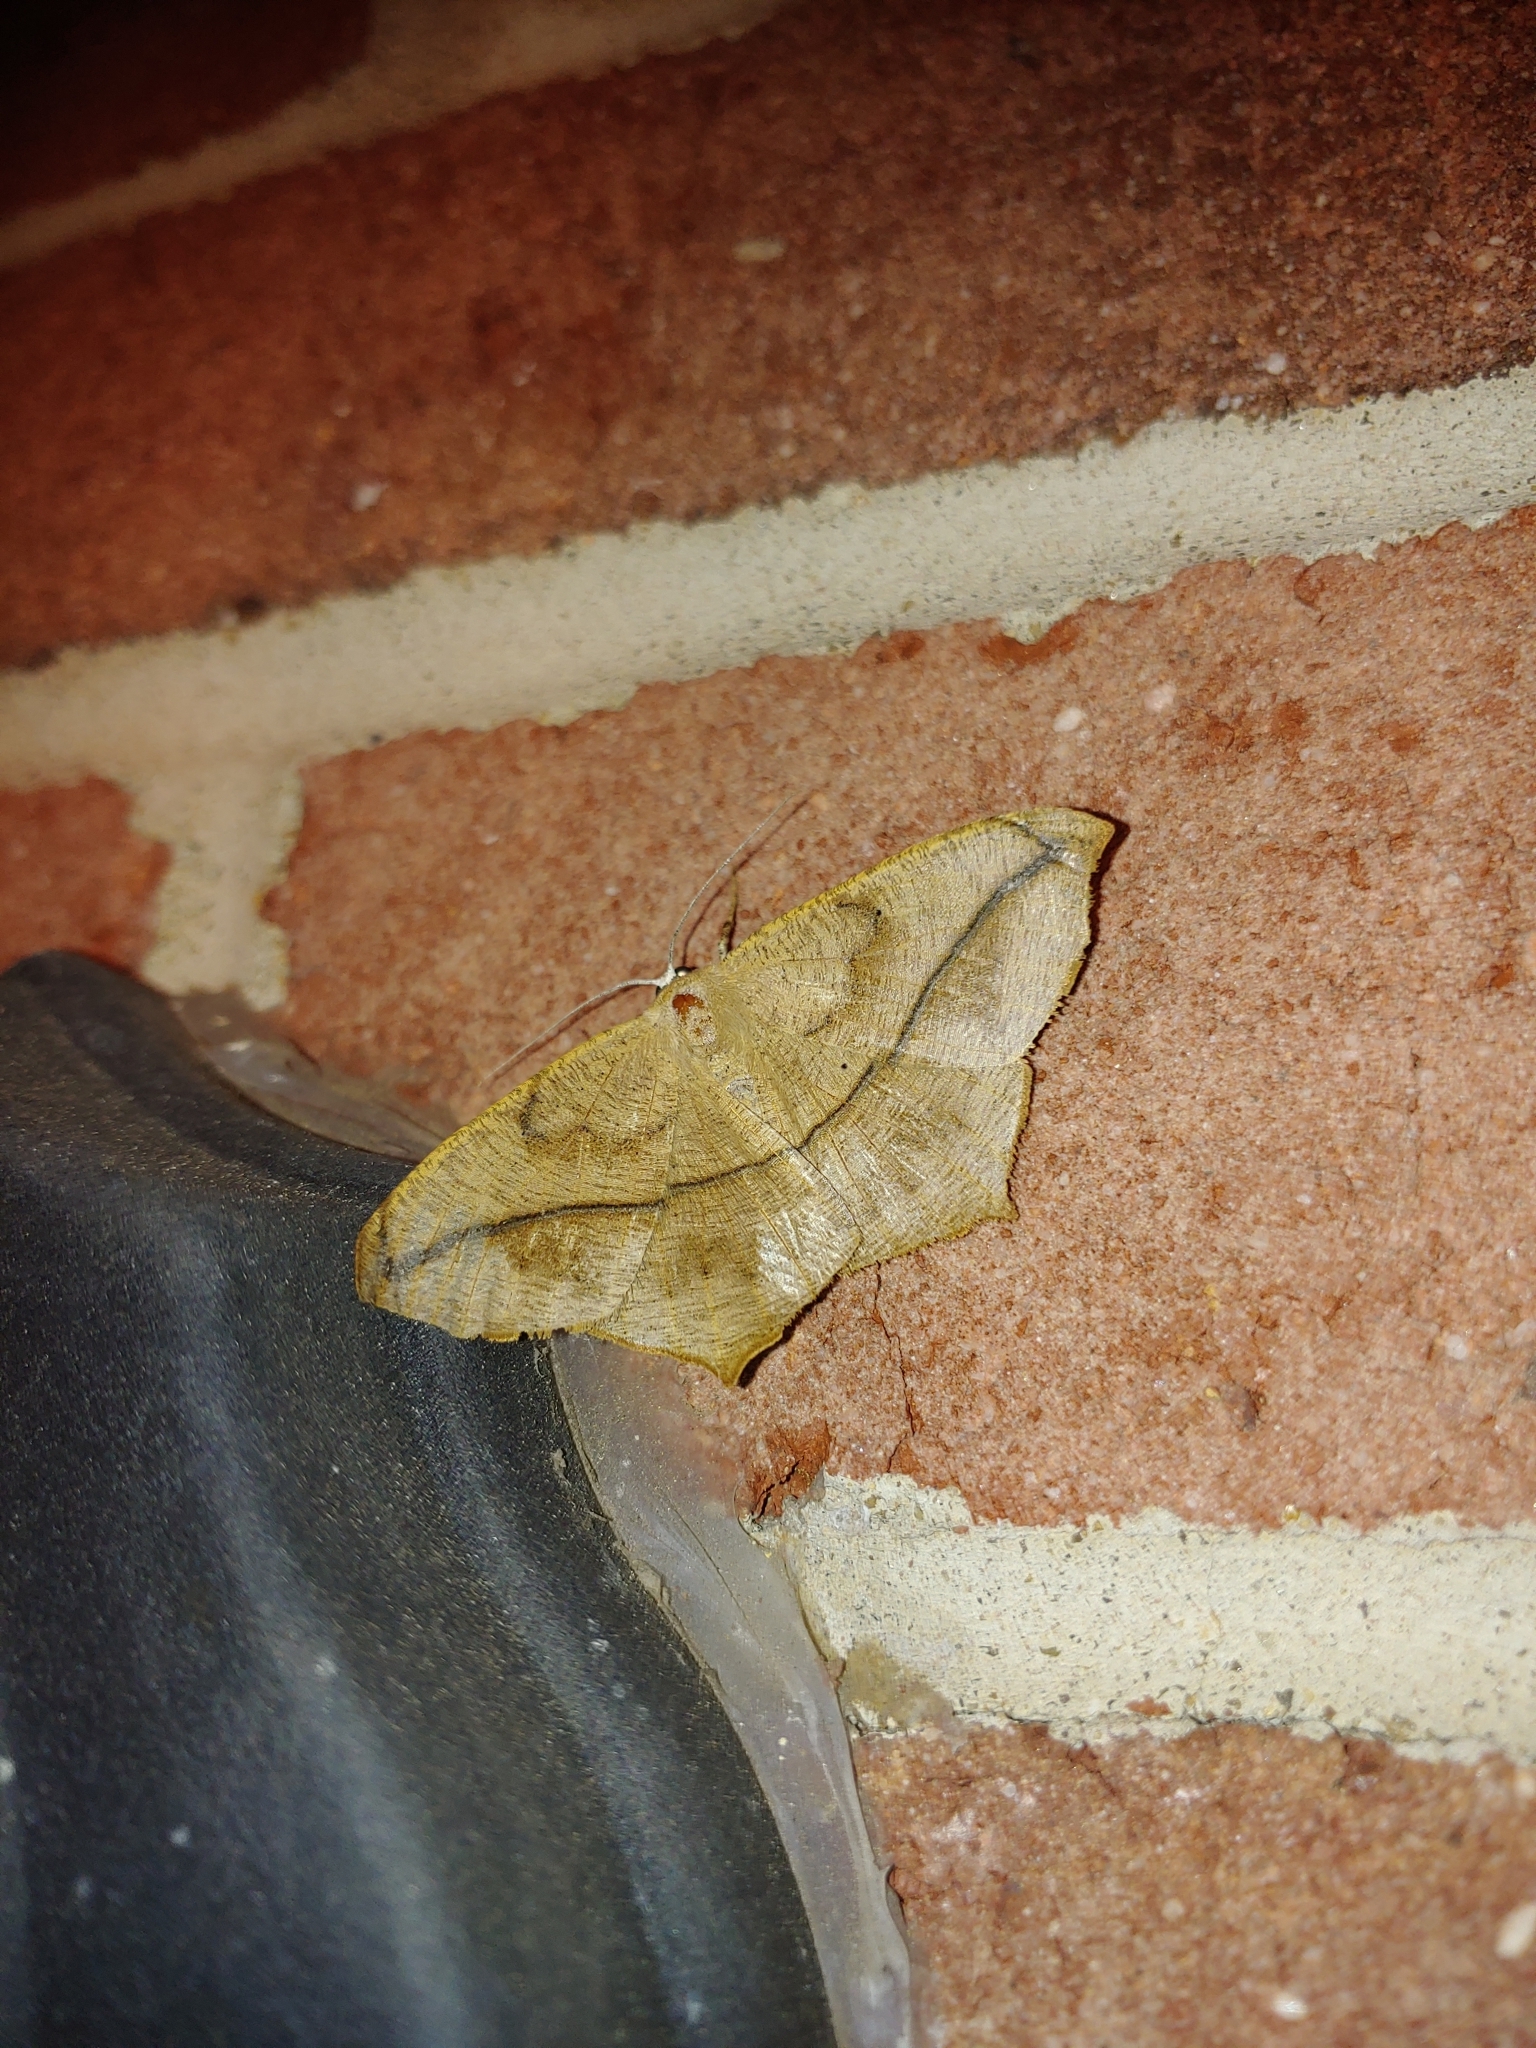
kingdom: Animalia
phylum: Arthropoda
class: Insecta
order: Lepidoptera
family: Geometridae
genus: Prochoerodes
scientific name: Prochoerodes lineola
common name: Large maple spanworm
